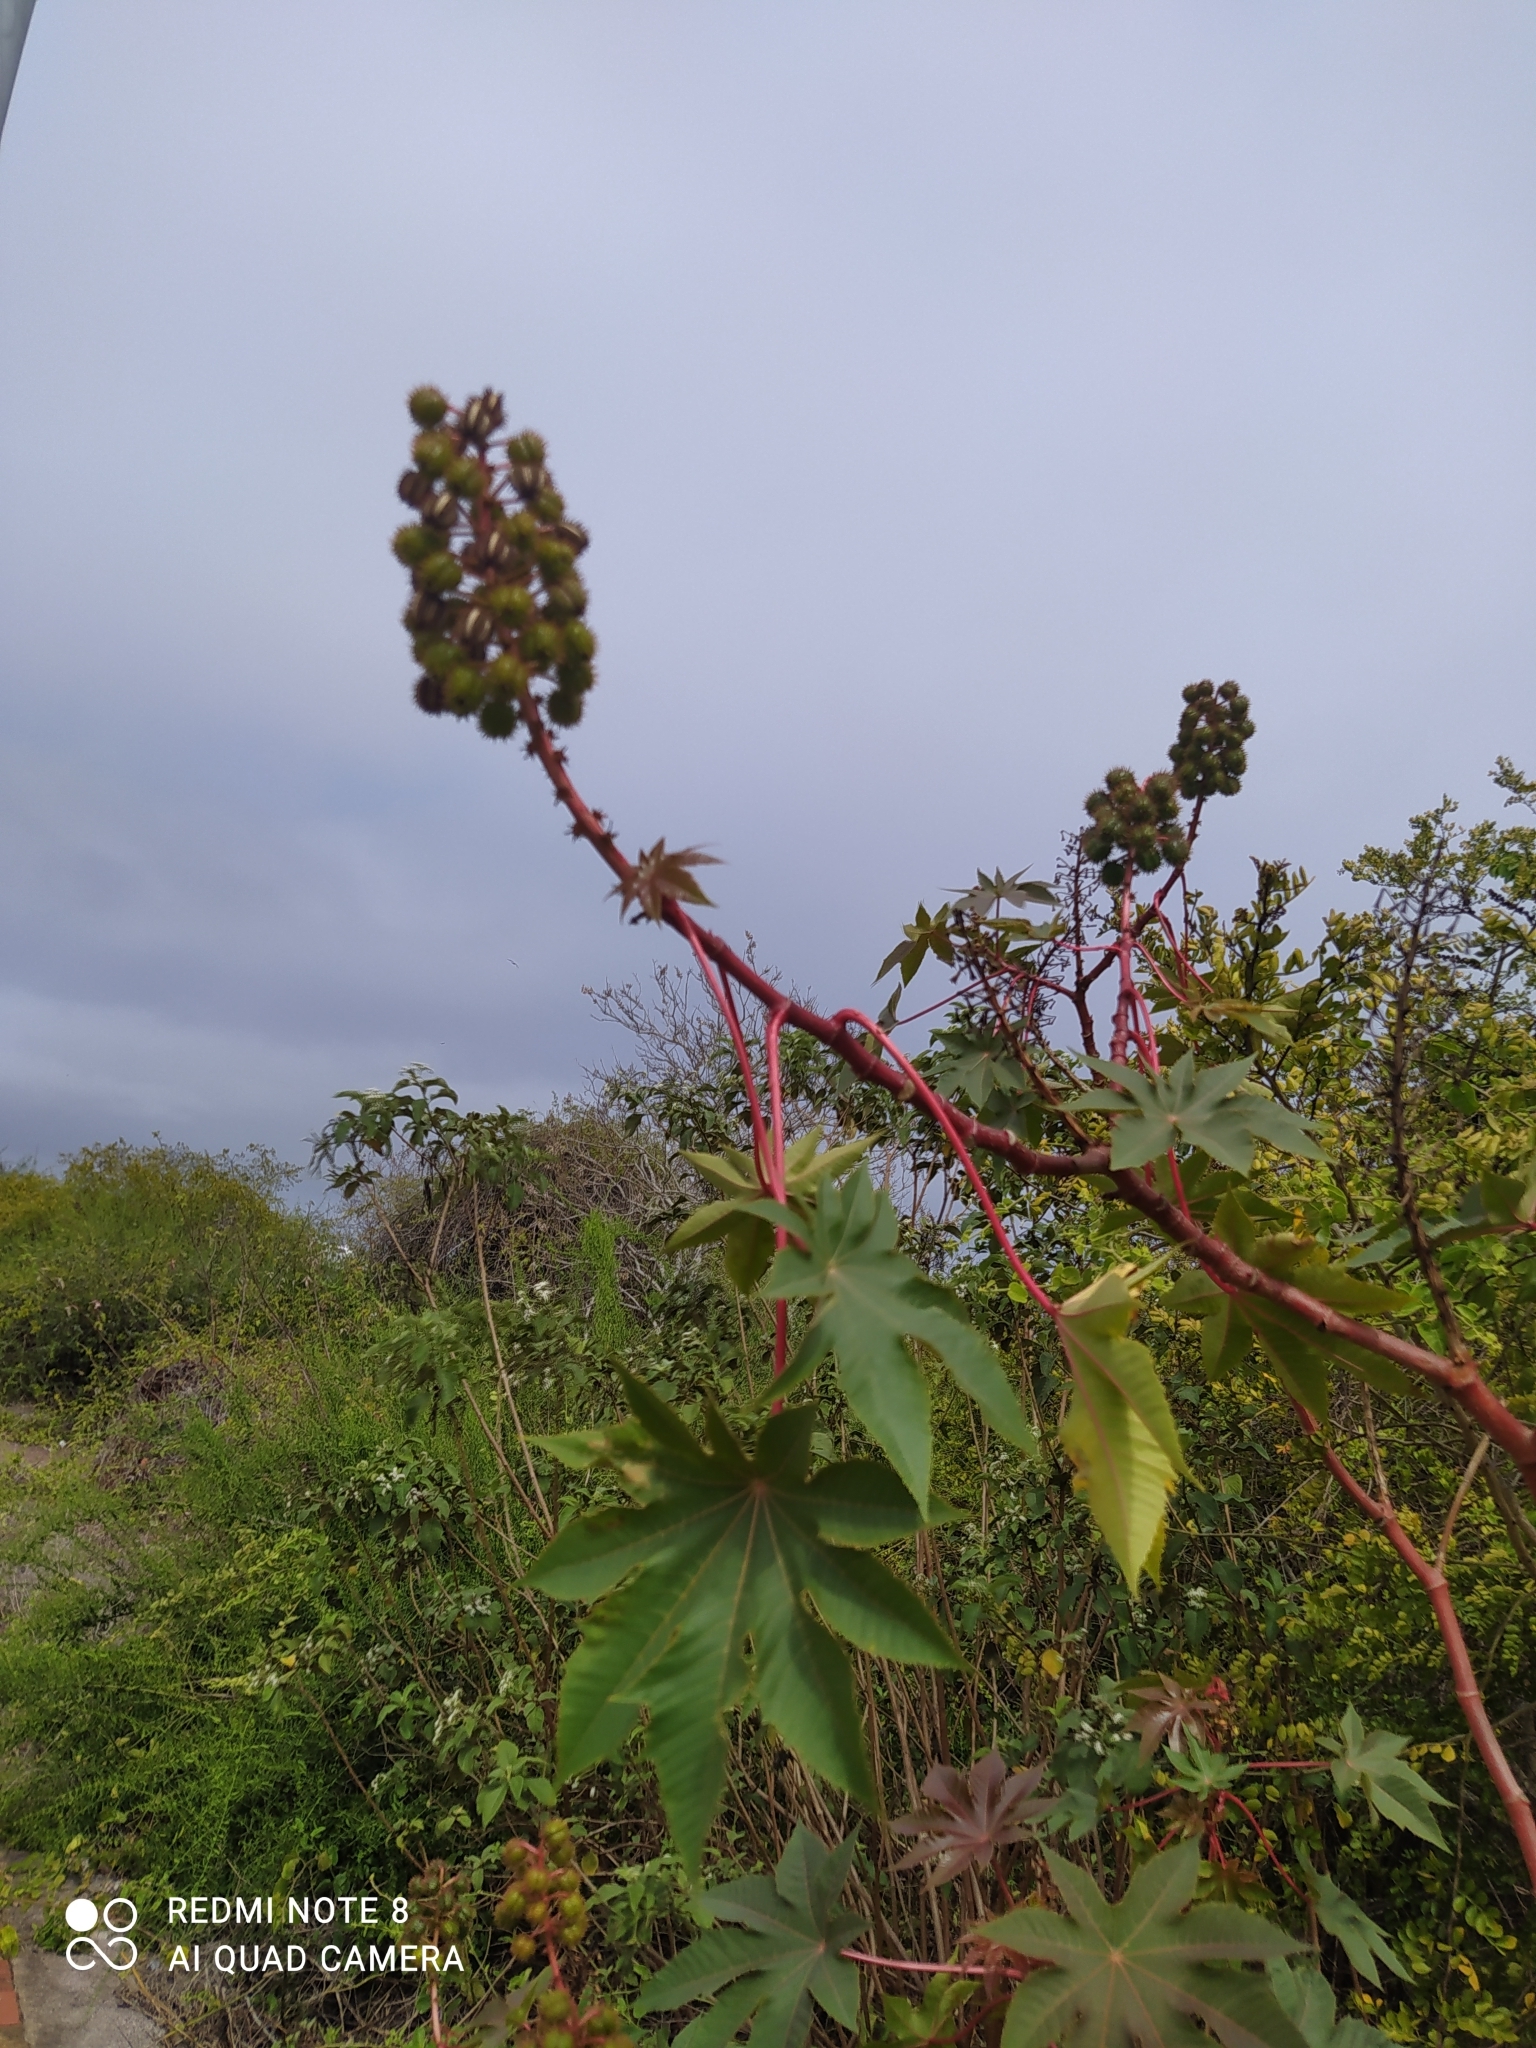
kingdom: Plantae
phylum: Tracheophyta
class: Magnoliopsida
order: Malpighiales
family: Euphorbiaceae
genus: Ricinus
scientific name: Ricinus communis
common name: Castor-oil-plant
